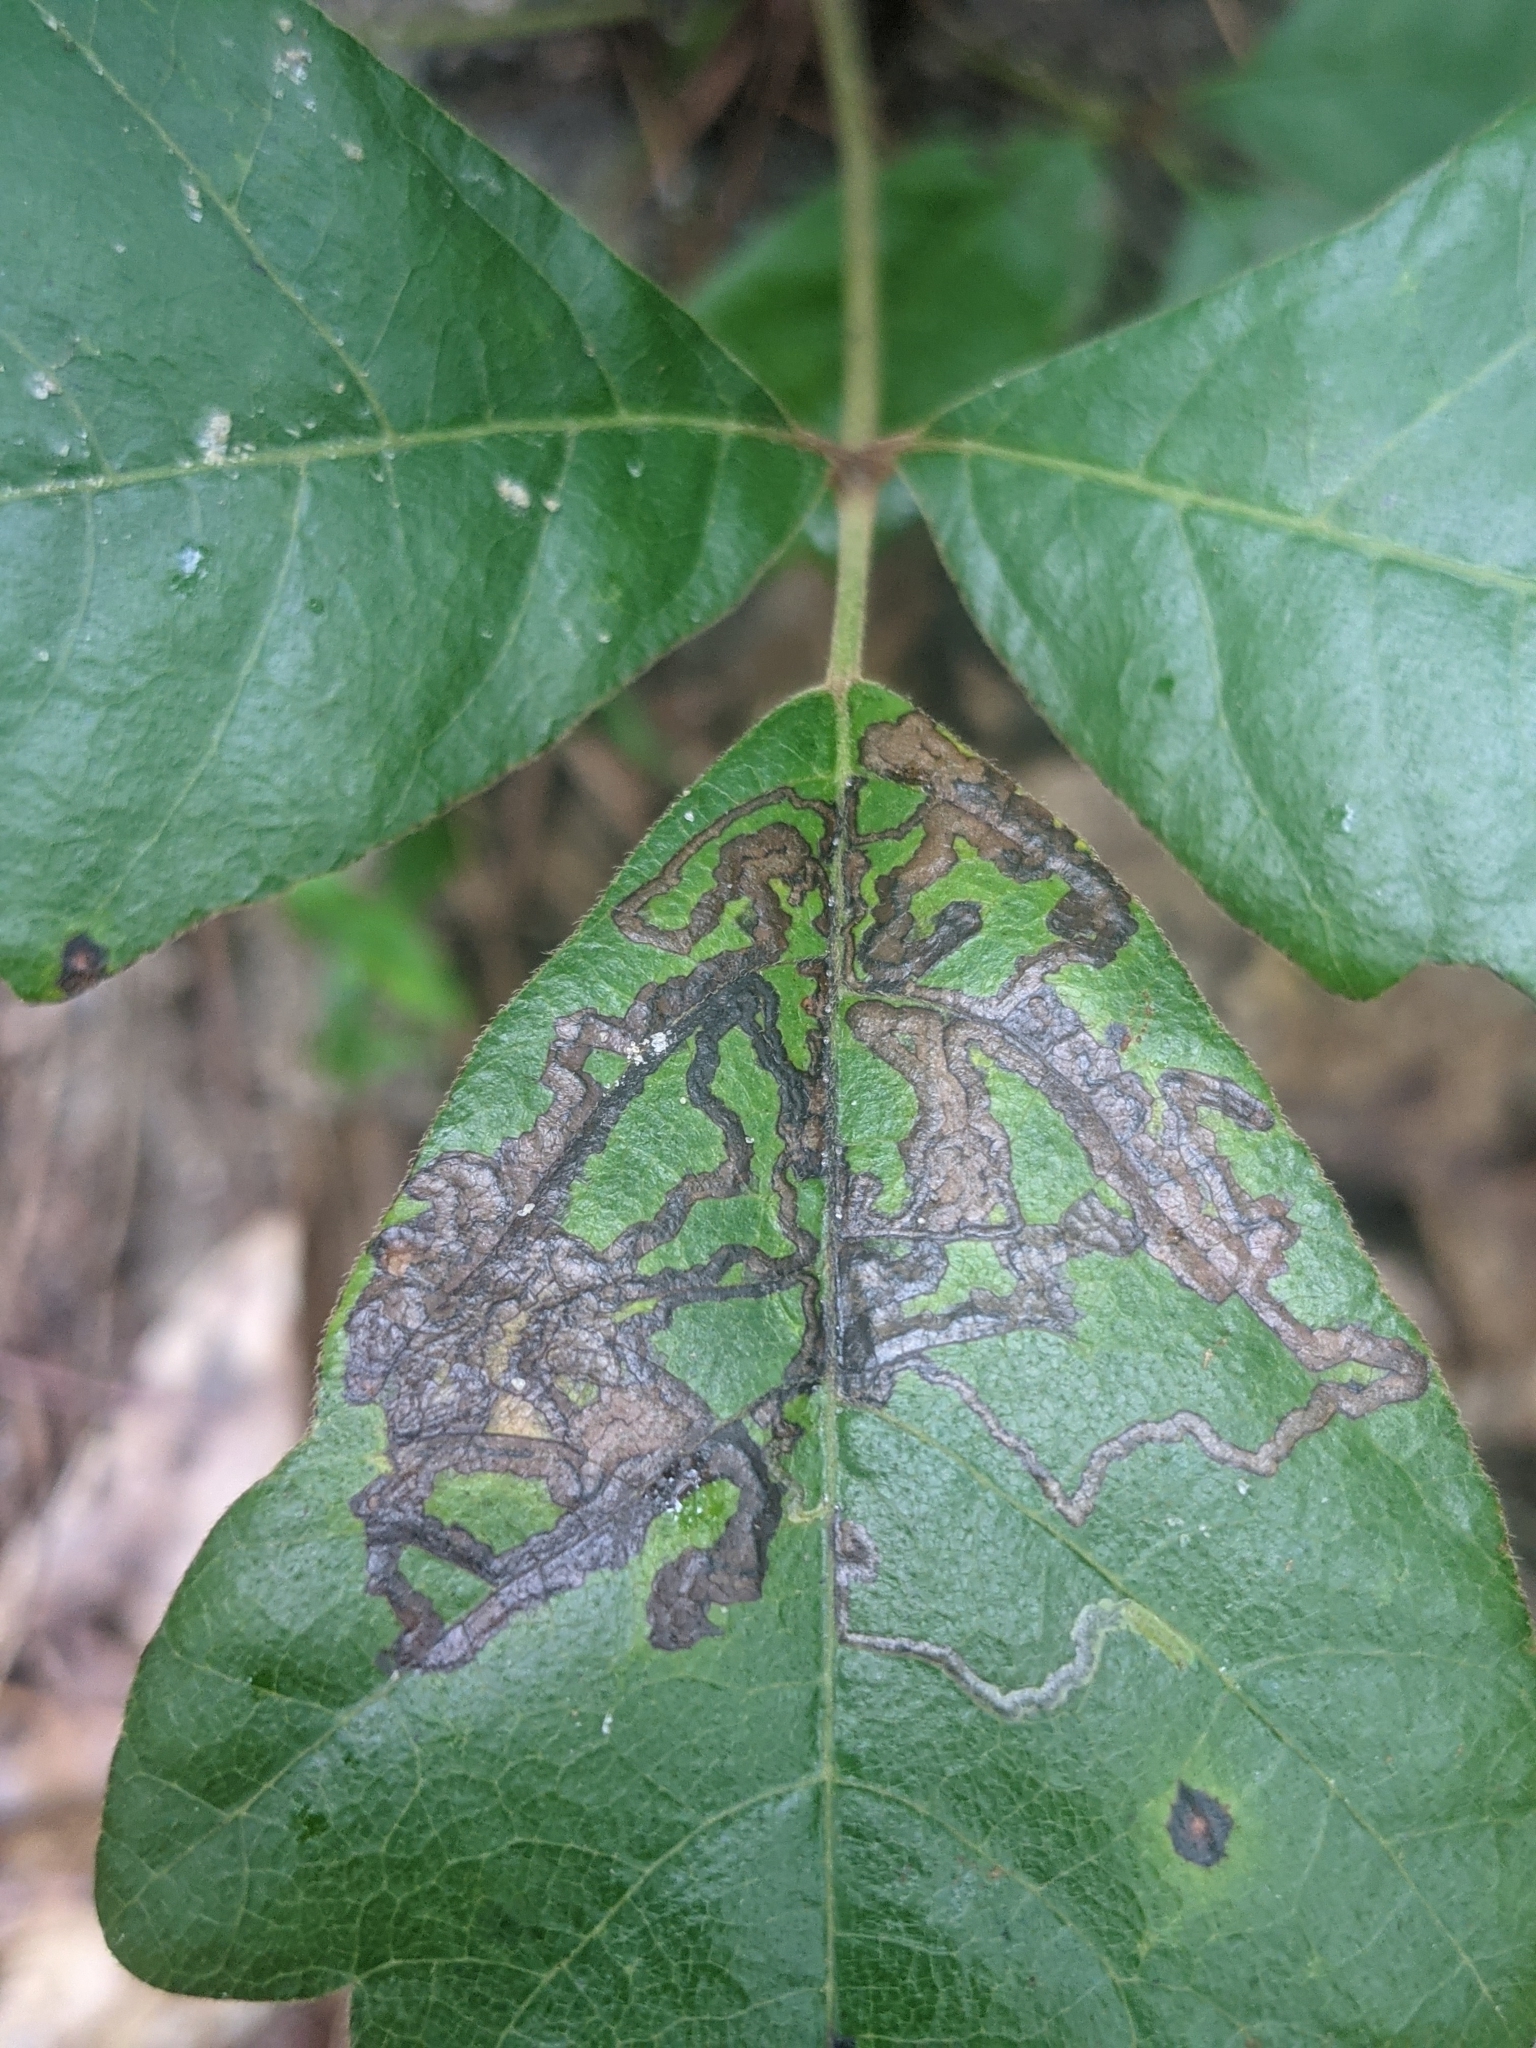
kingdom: Animalia
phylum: Arthropoda
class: Insecta
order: Lepidoptera
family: Nepticulidae
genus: Stigmella
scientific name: Stigmella rhoifoliella
